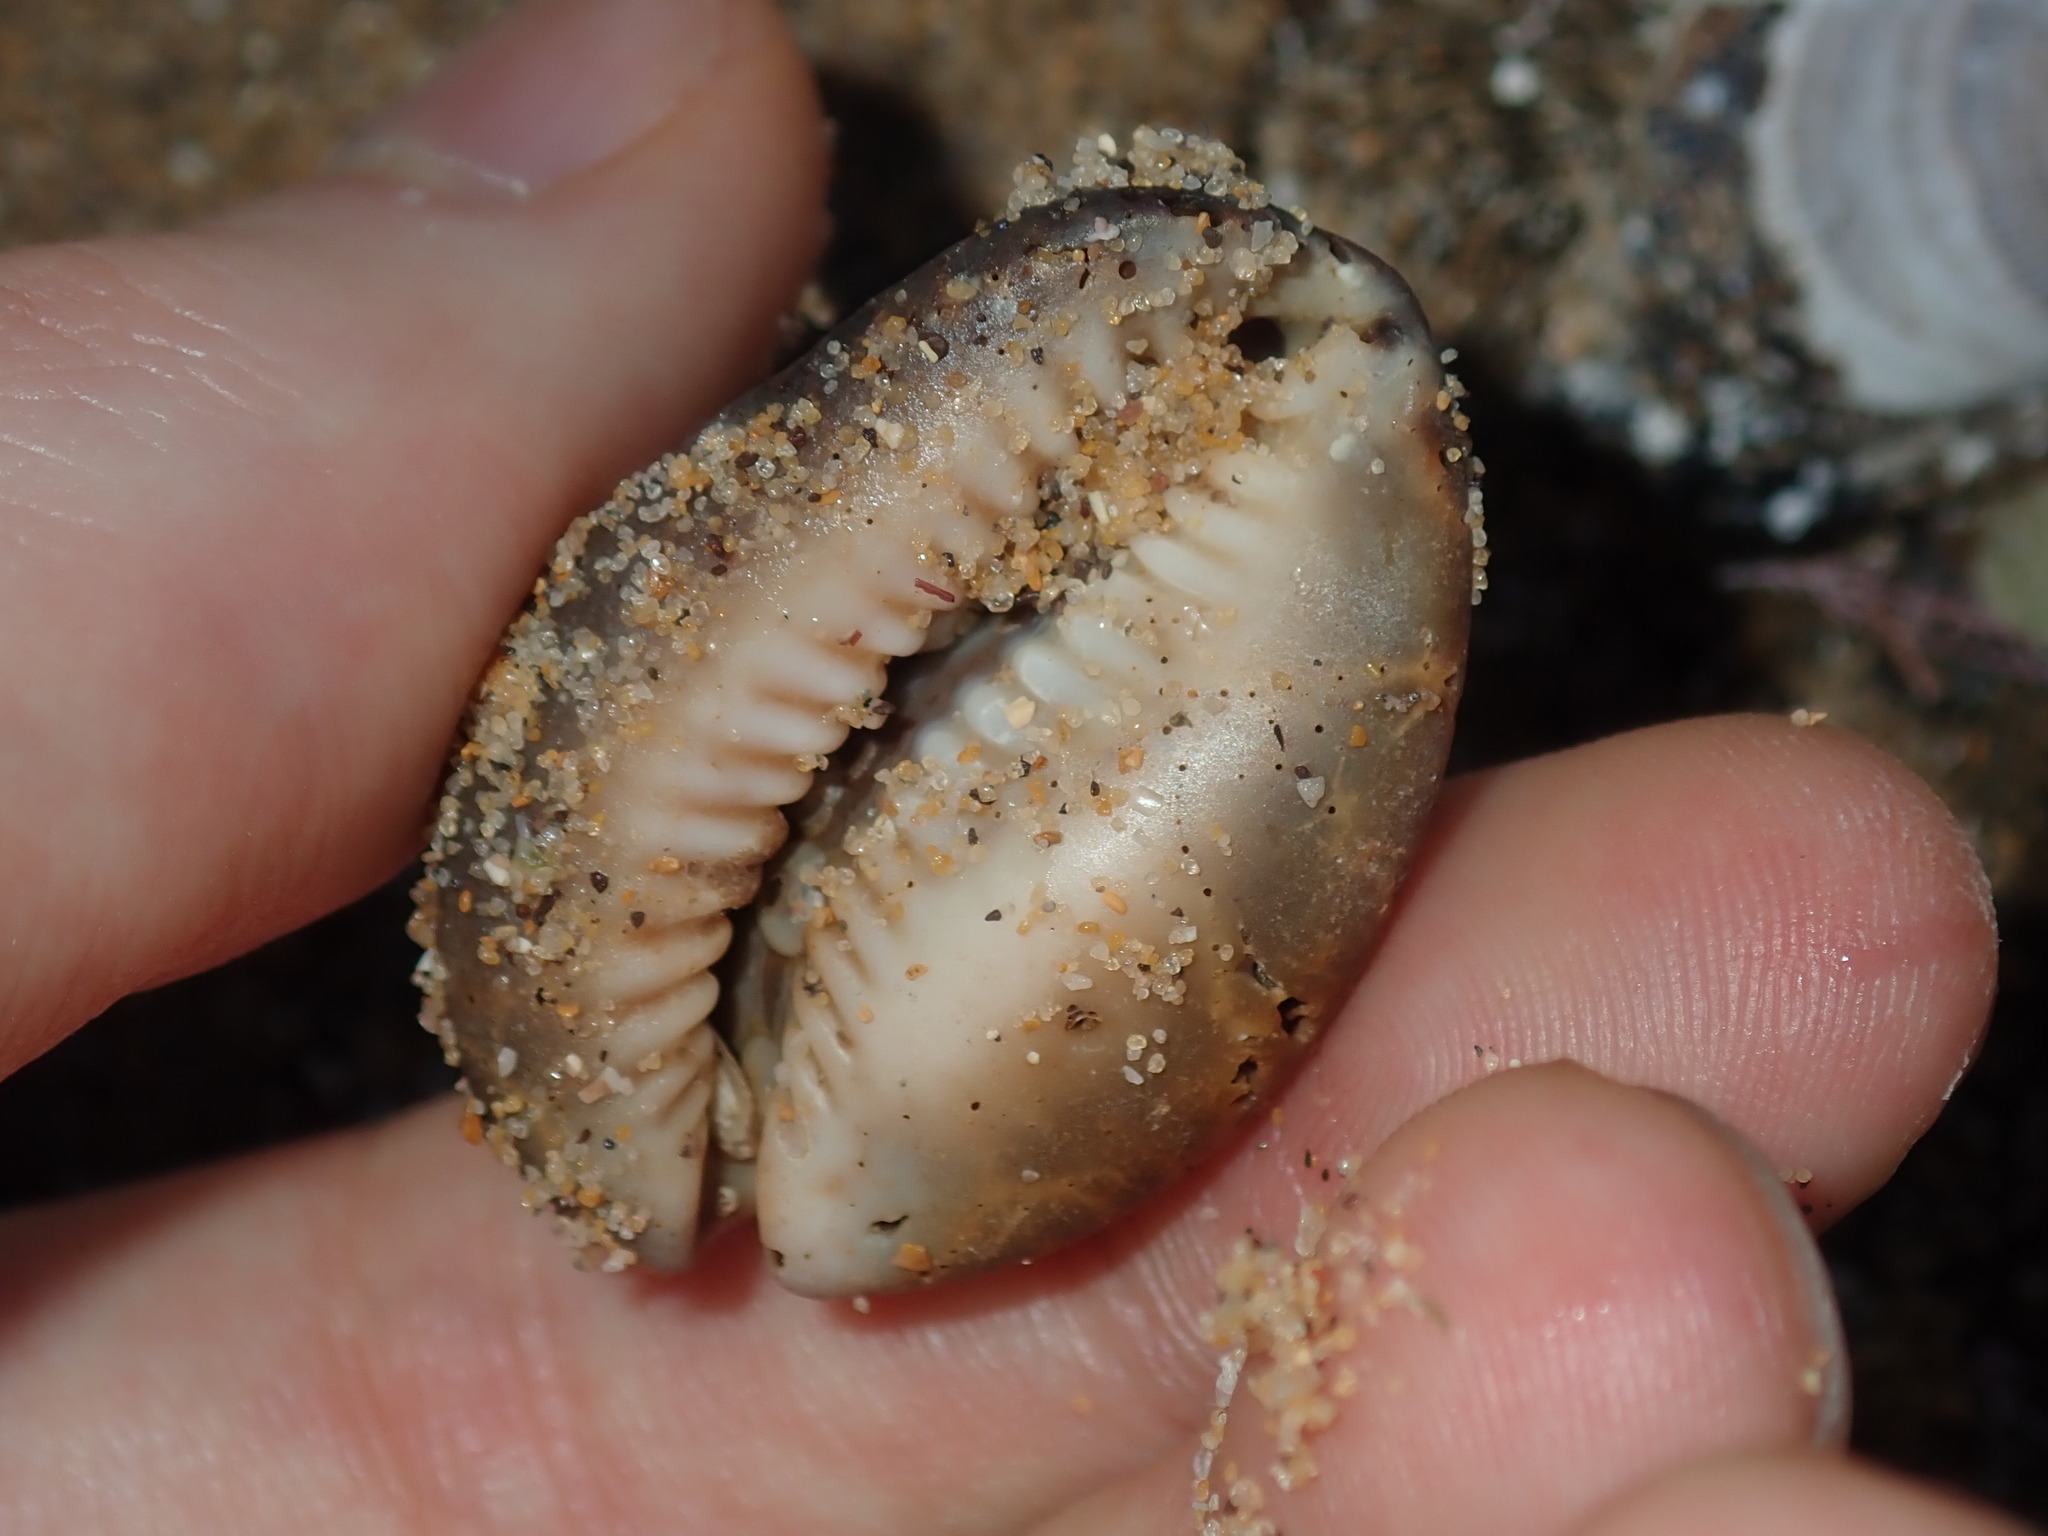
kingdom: Animalia
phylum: Mollusca
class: Gastropoda
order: Littorinimorpha
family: Cypraeidae
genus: Monetaria
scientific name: Monetaria caputserpentis
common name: Serpent's head cowrie
